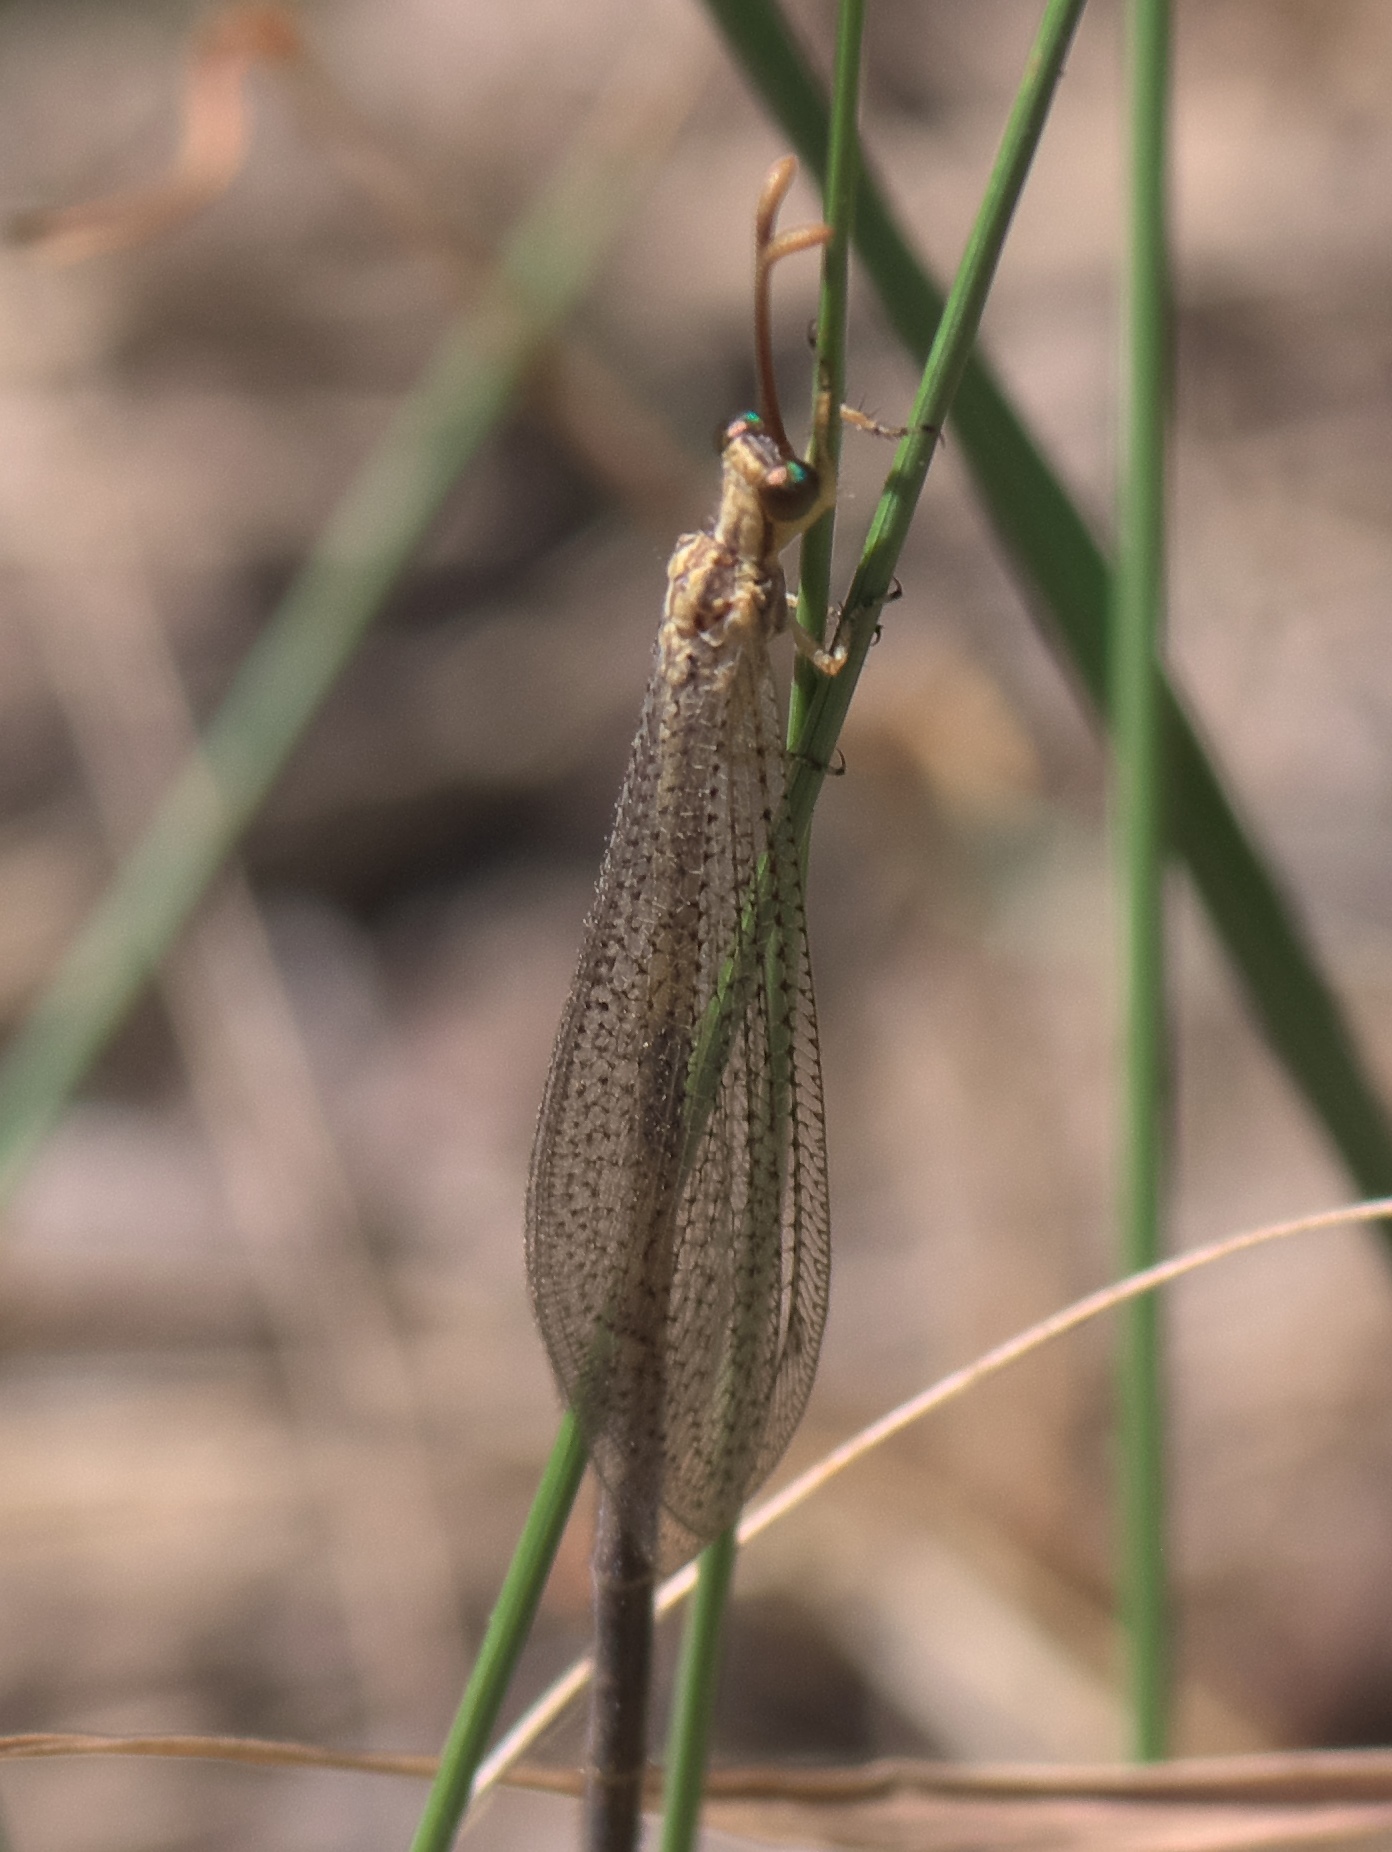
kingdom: Animalia
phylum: Arthropoda
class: Insecta
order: Neuroptera
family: Myrmeleontidae
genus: Brachynemurus
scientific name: Brachynemurus abdominalis
